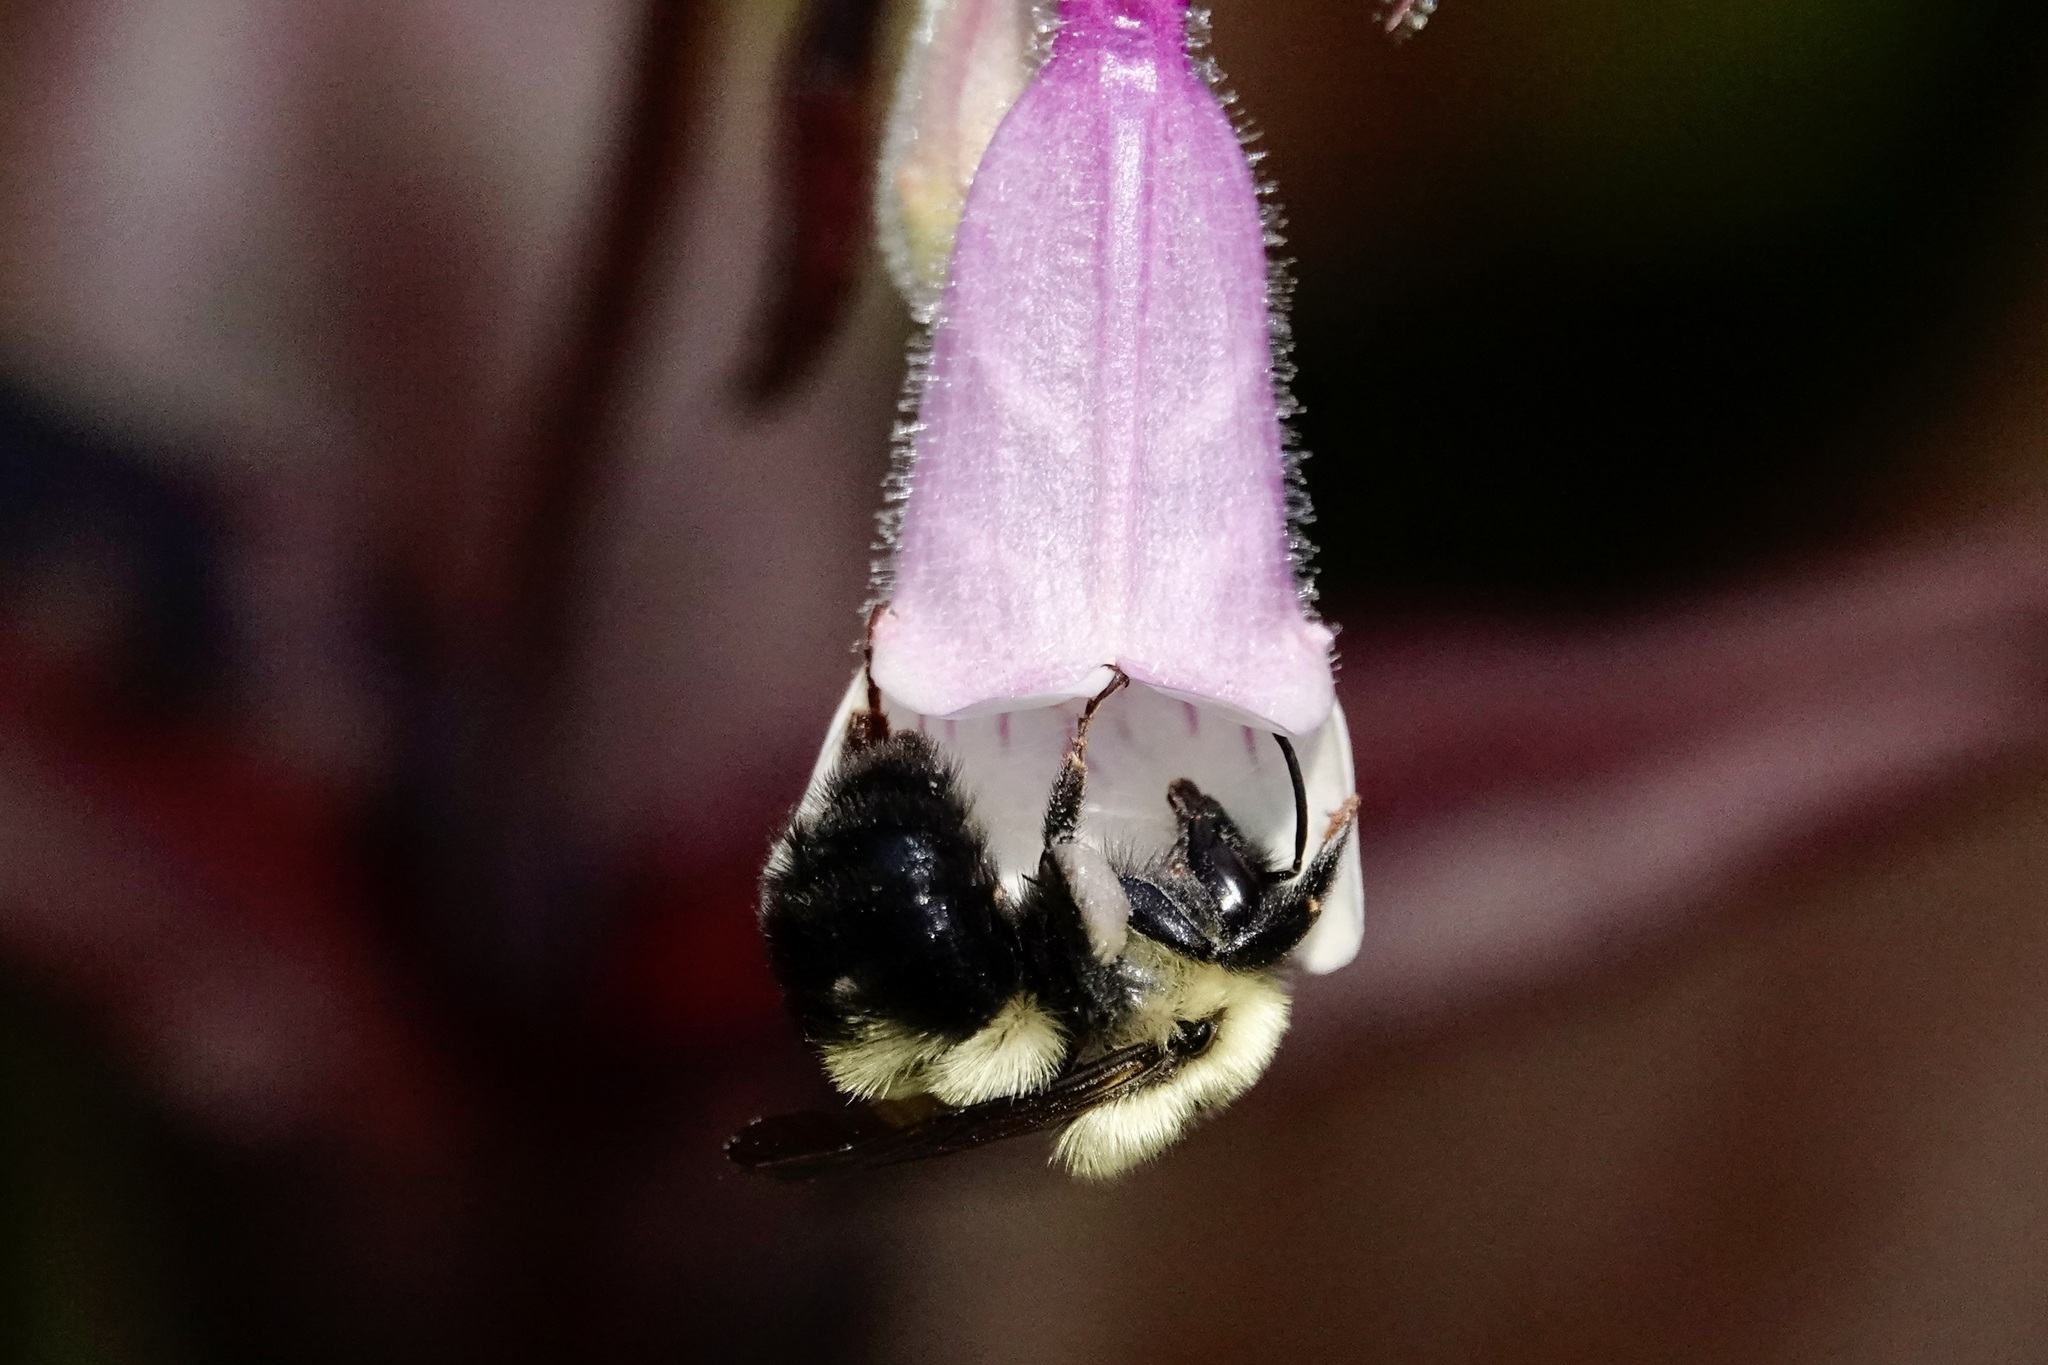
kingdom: Animalia
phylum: Arthropoda
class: Insecta
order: Hymenoptera
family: Apidae
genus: Bombus
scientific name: Bombus bimaculatus
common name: Two-spotted bumble bee
